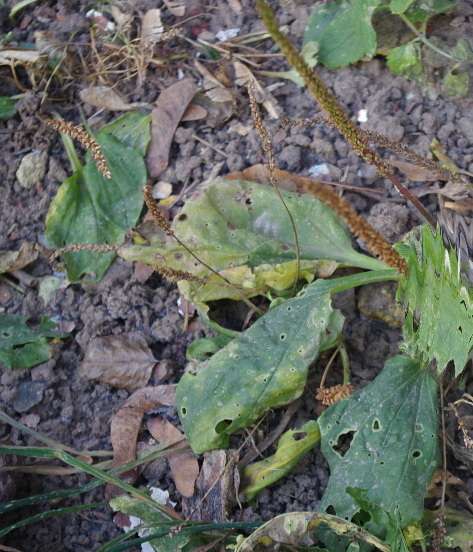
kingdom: Plantae
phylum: Tracheophyta
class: Magnoliopsida
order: Lamiales
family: Plantaginaceae
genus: Plantago
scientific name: Plantago major
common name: Common plantain
